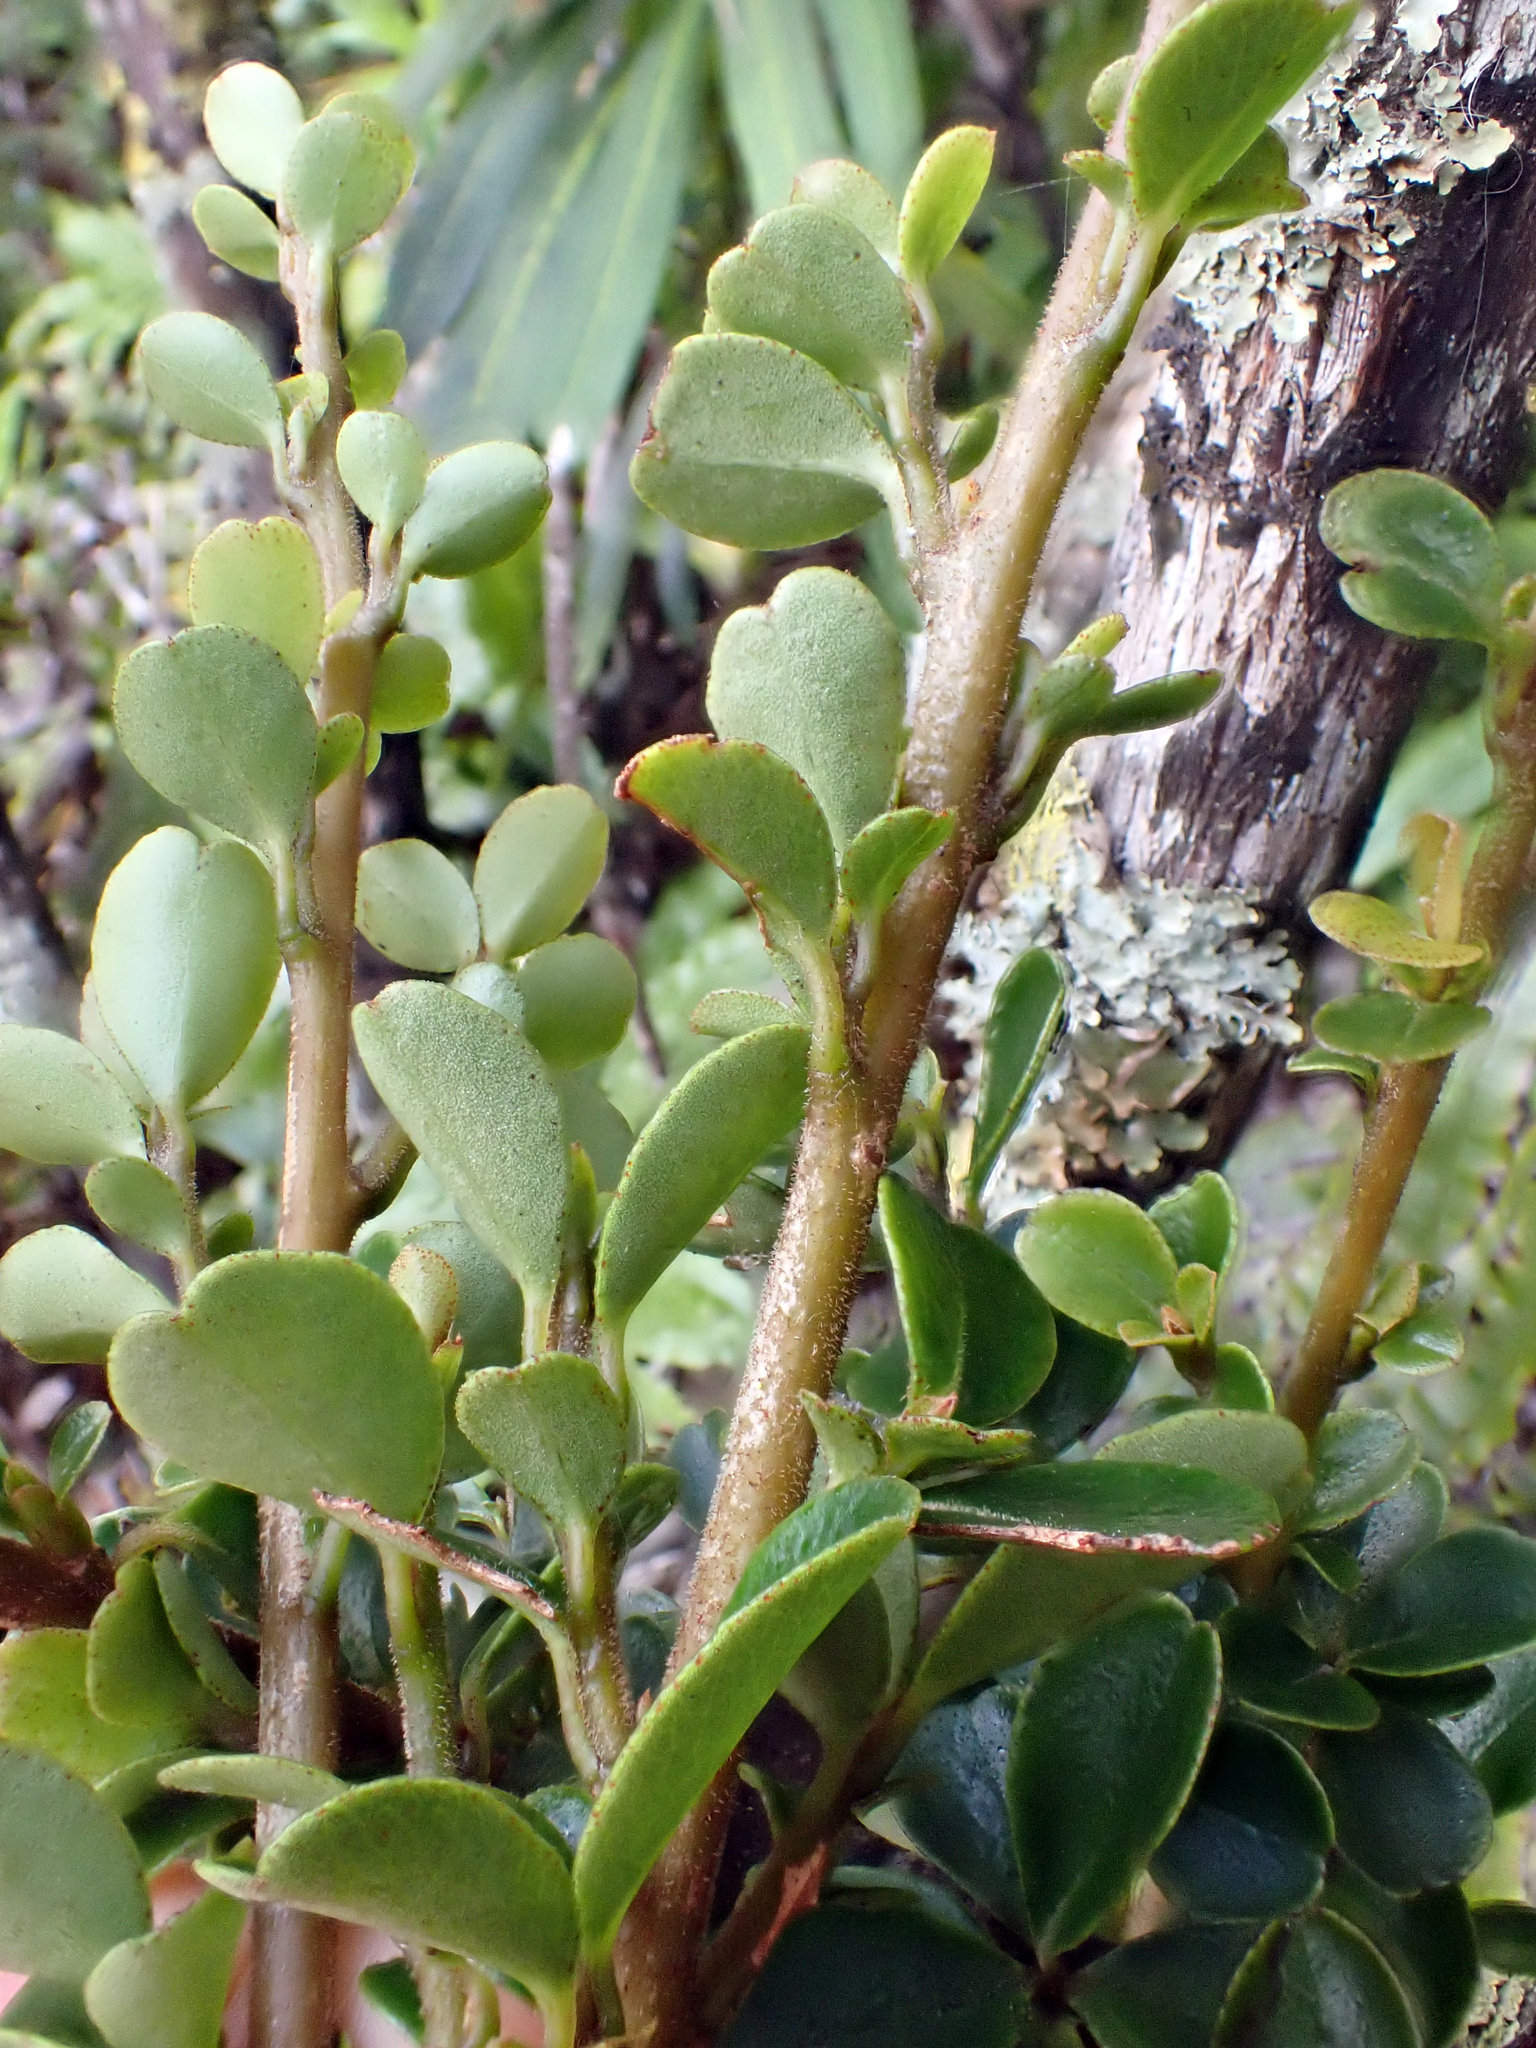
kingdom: Plantae
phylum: Tracheophyta
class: Magnoliopsida
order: Ericales
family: Primulaceae
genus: Myrsine
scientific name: Myrsine coxii
